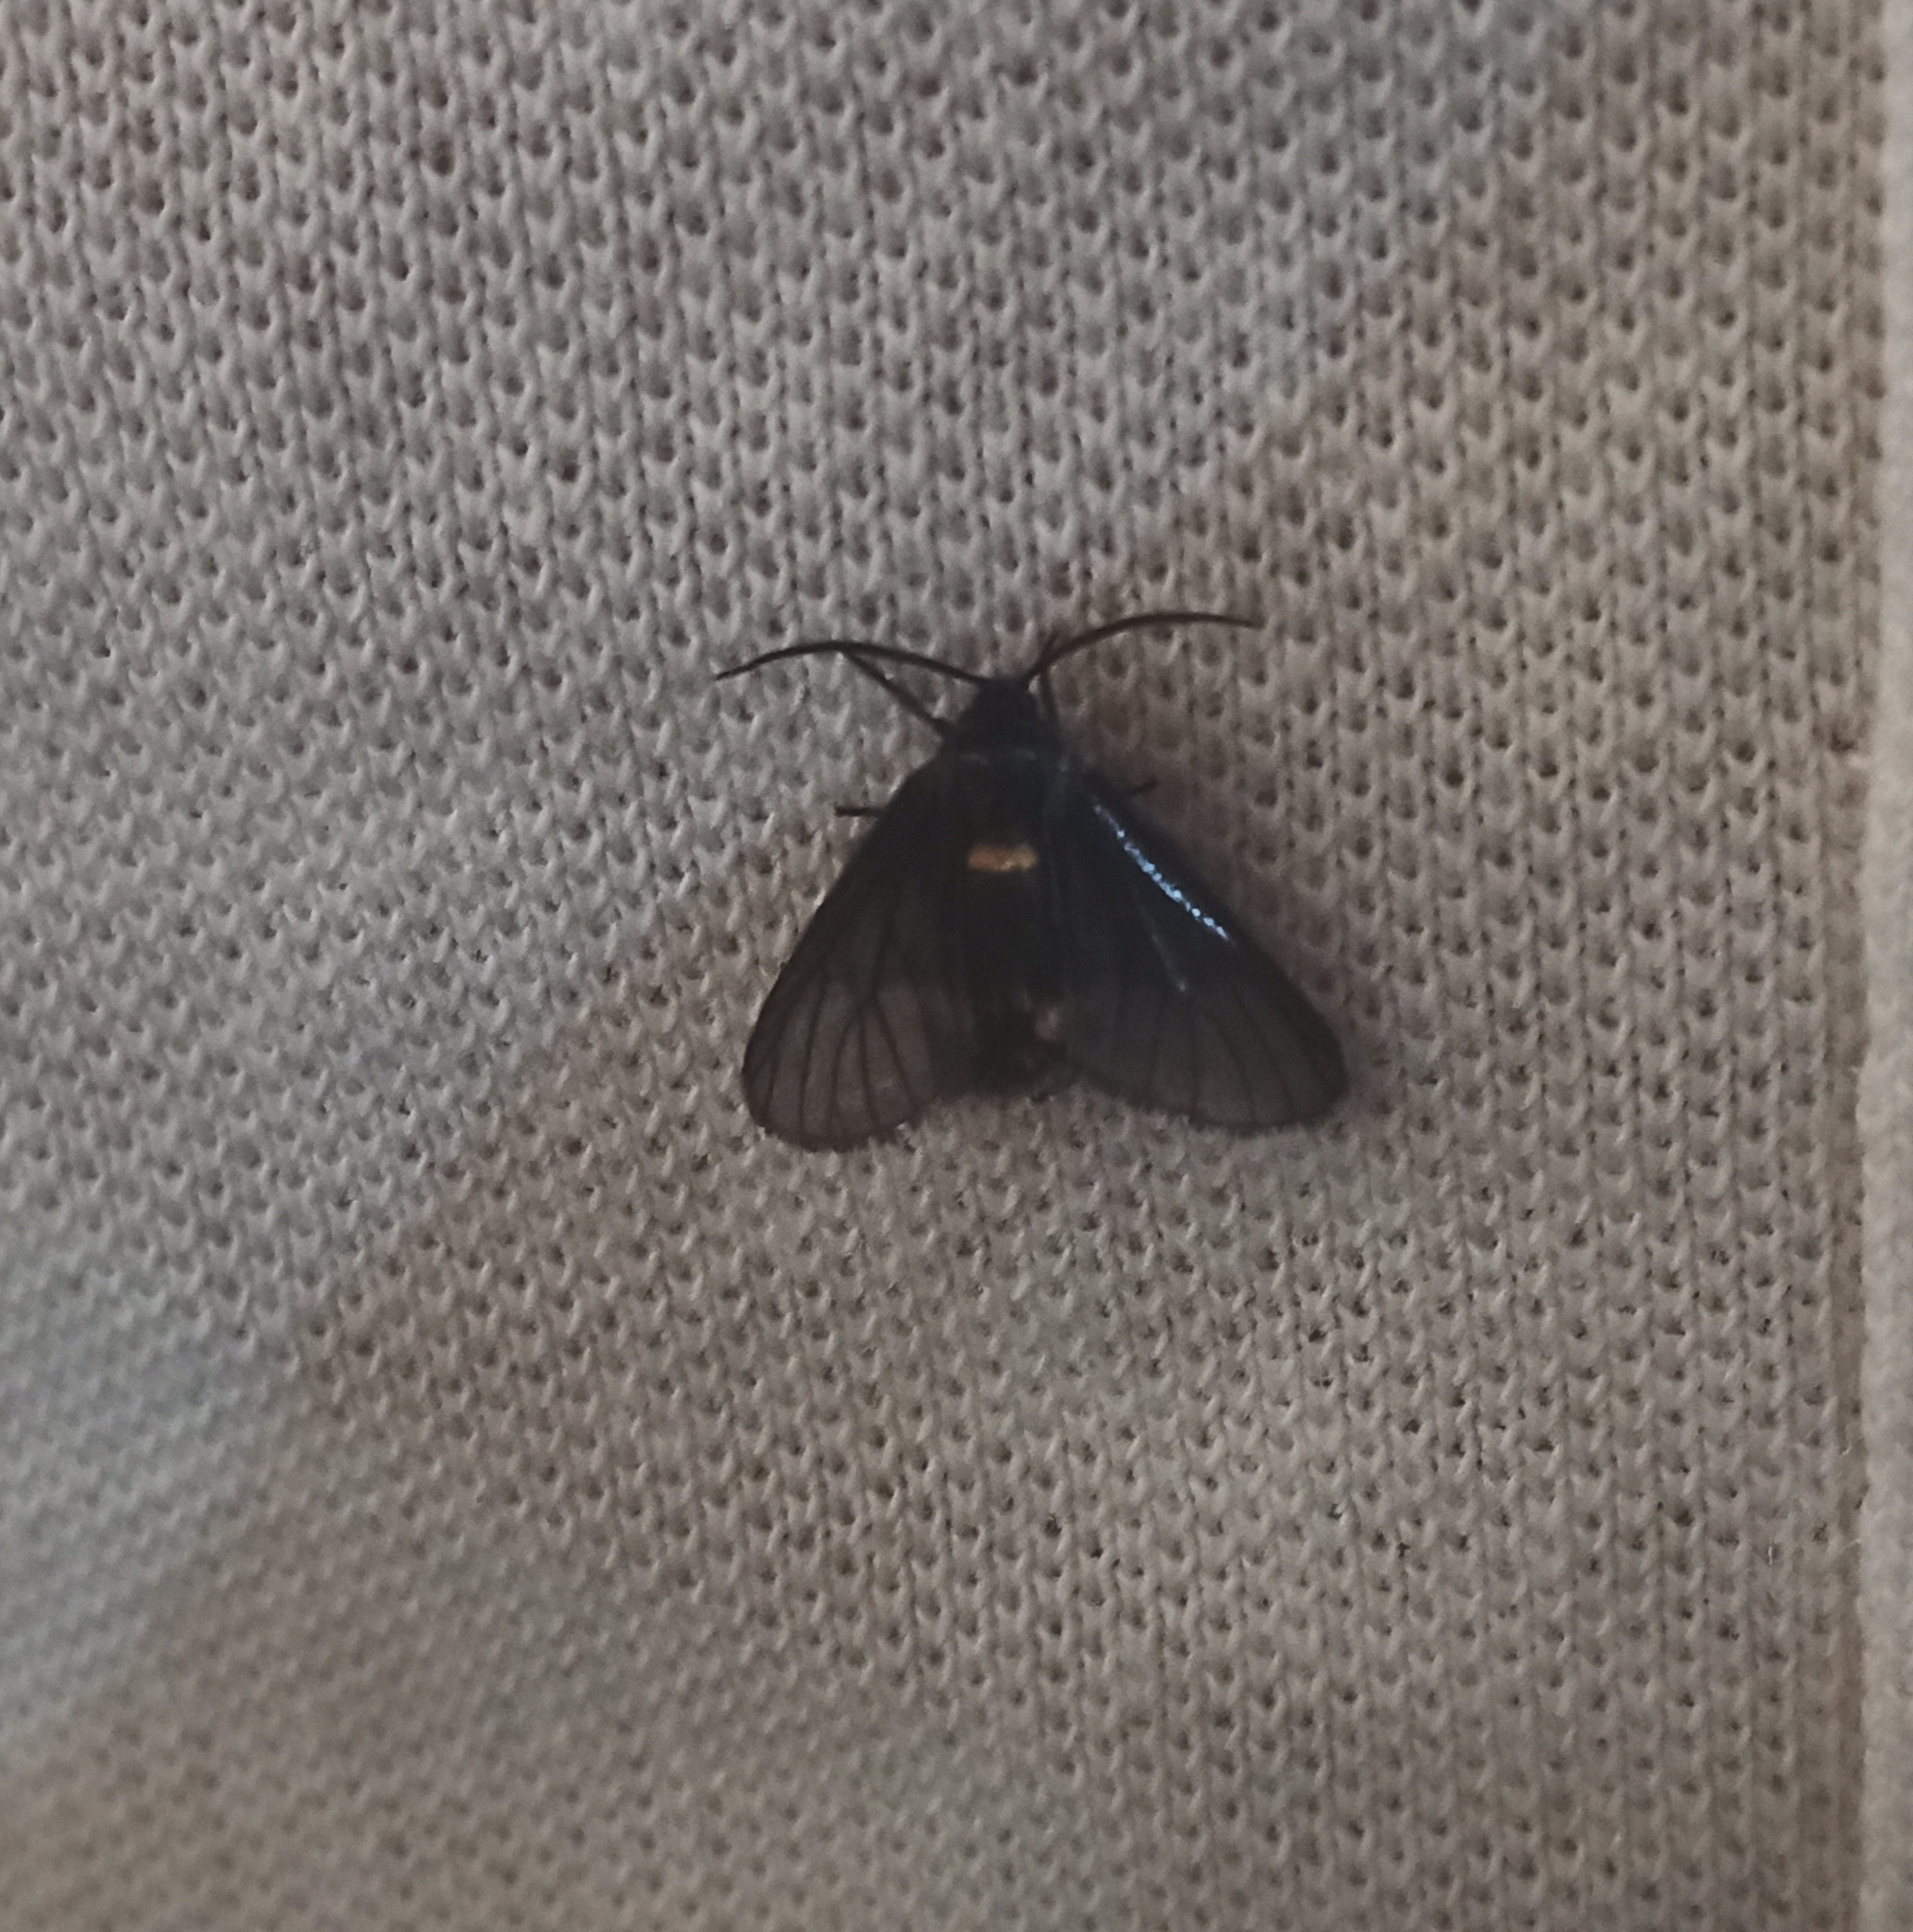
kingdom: Animalia
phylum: Arthropoda
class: Insecta
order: Lepidoptera
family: Erebidae
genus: Psichotoe
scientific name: Psichotoe duvauceli
